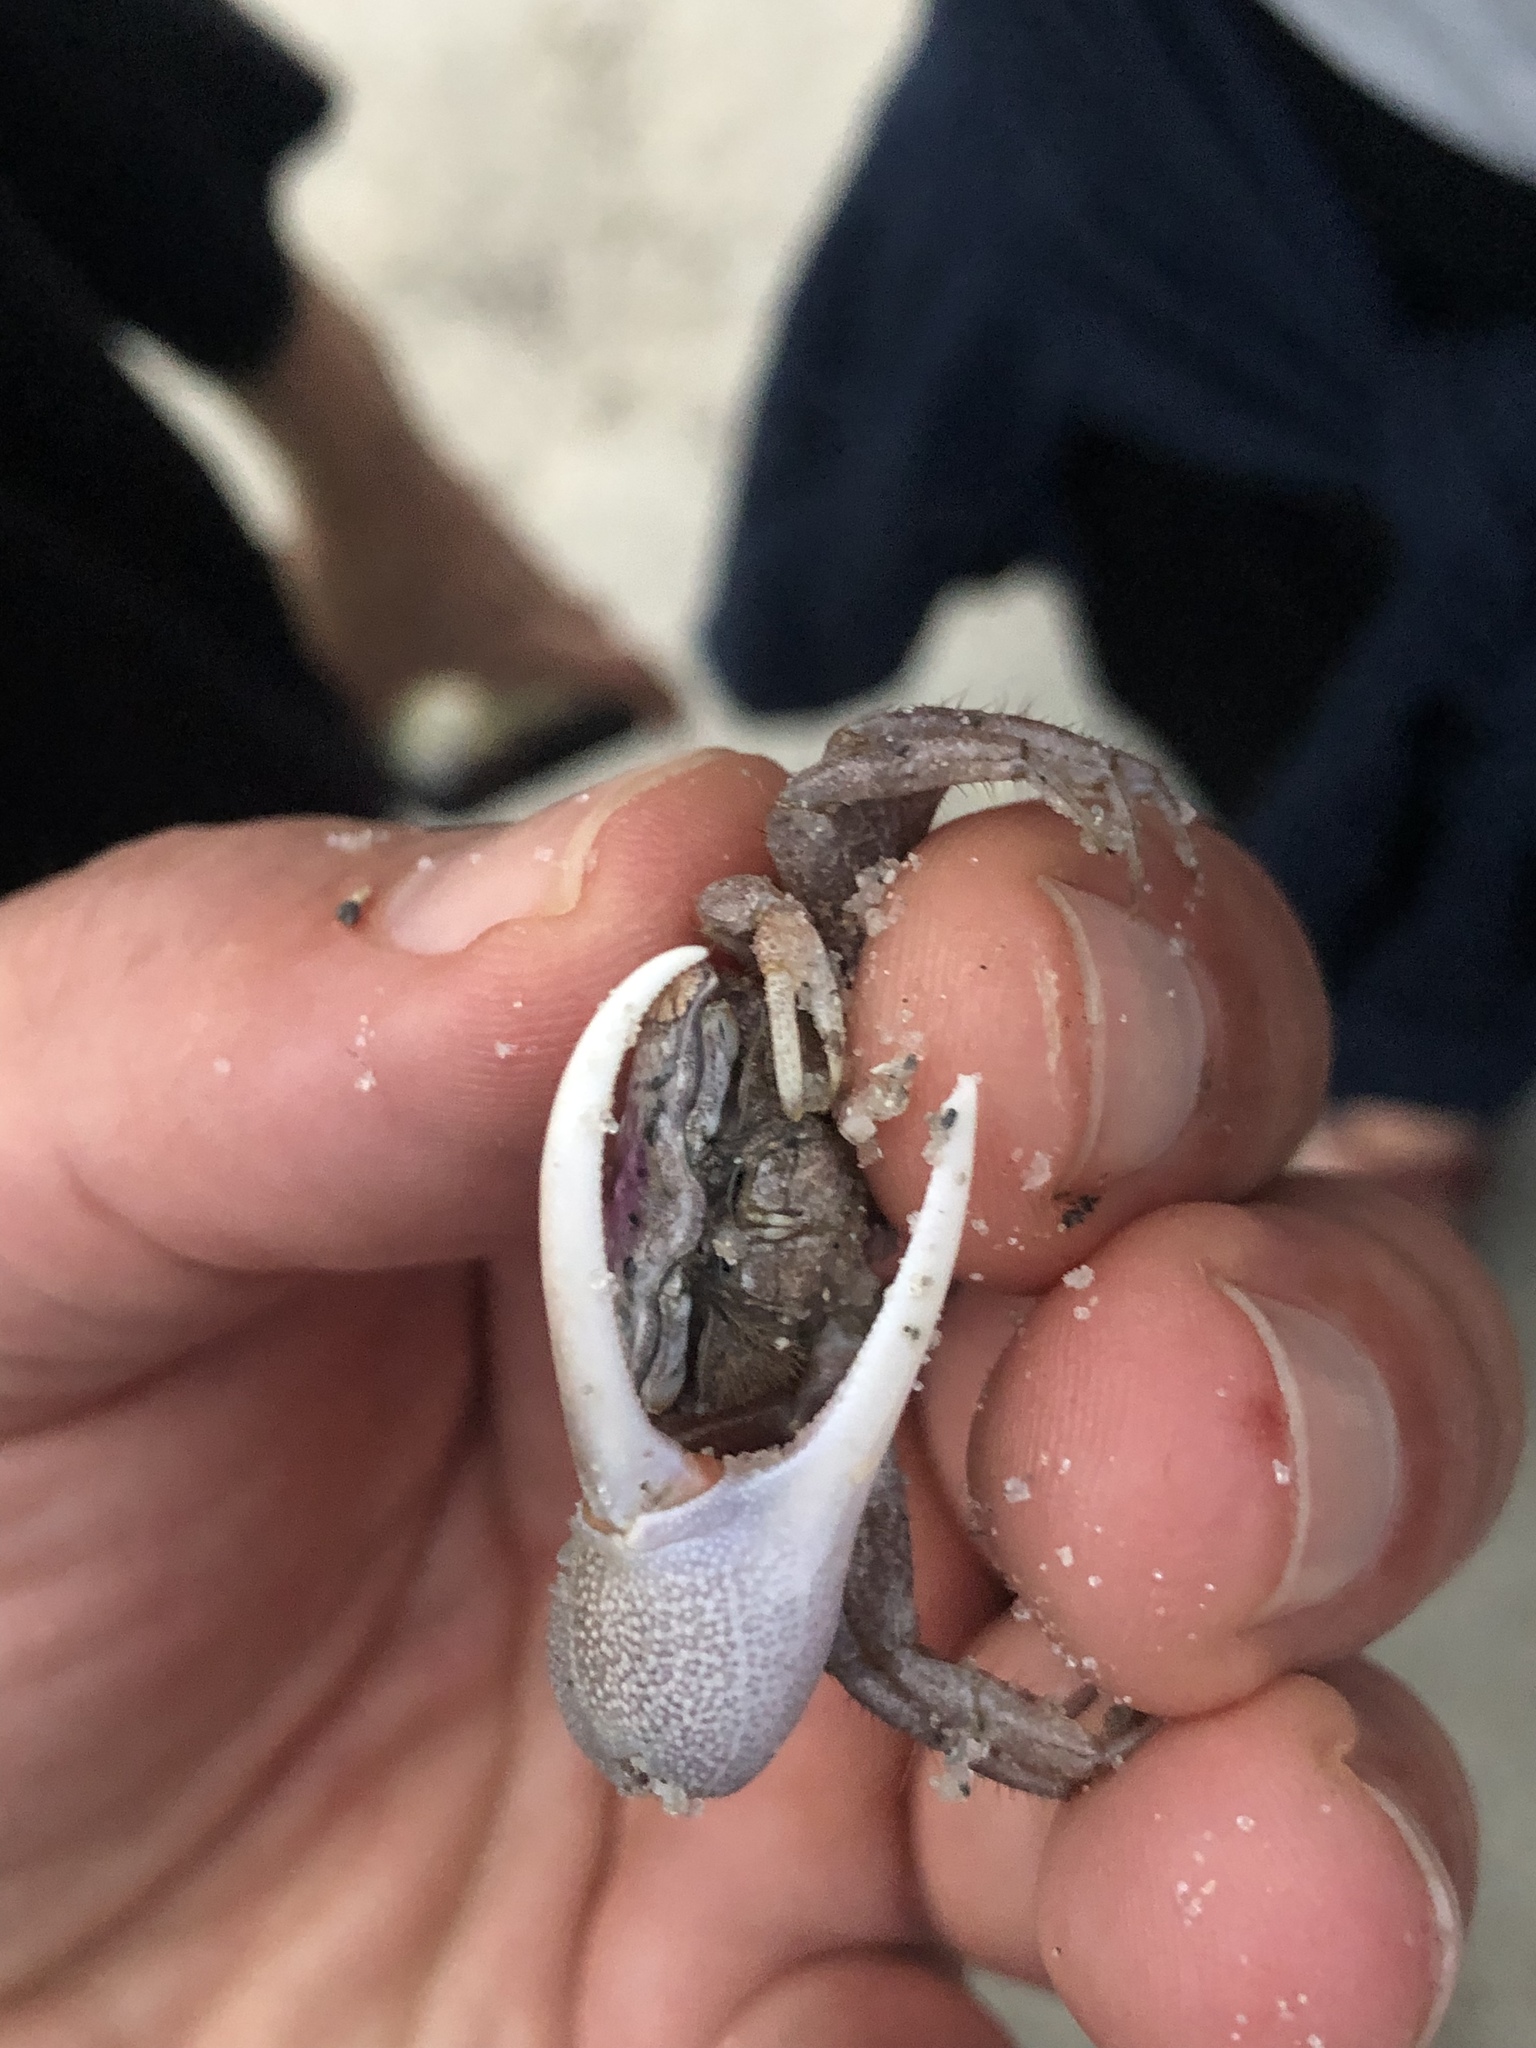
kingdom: Animalia
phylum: Arthropoda
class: Malacostraca
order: Decapoda
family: Ocypodidae
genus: Leptuca
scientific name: Leptuca pugilator
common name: Atlantic sand fiddler crab
